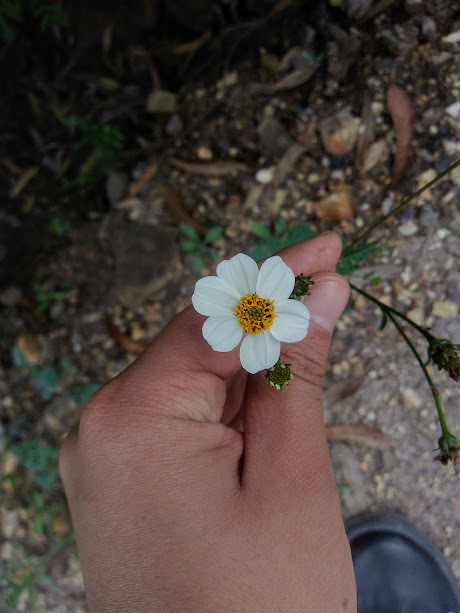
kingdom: Plantae
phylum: Tracheophyta
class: Magnoliopsida
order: Asterales
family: Asteraceae
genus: Bidens
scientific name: Bidens alba
